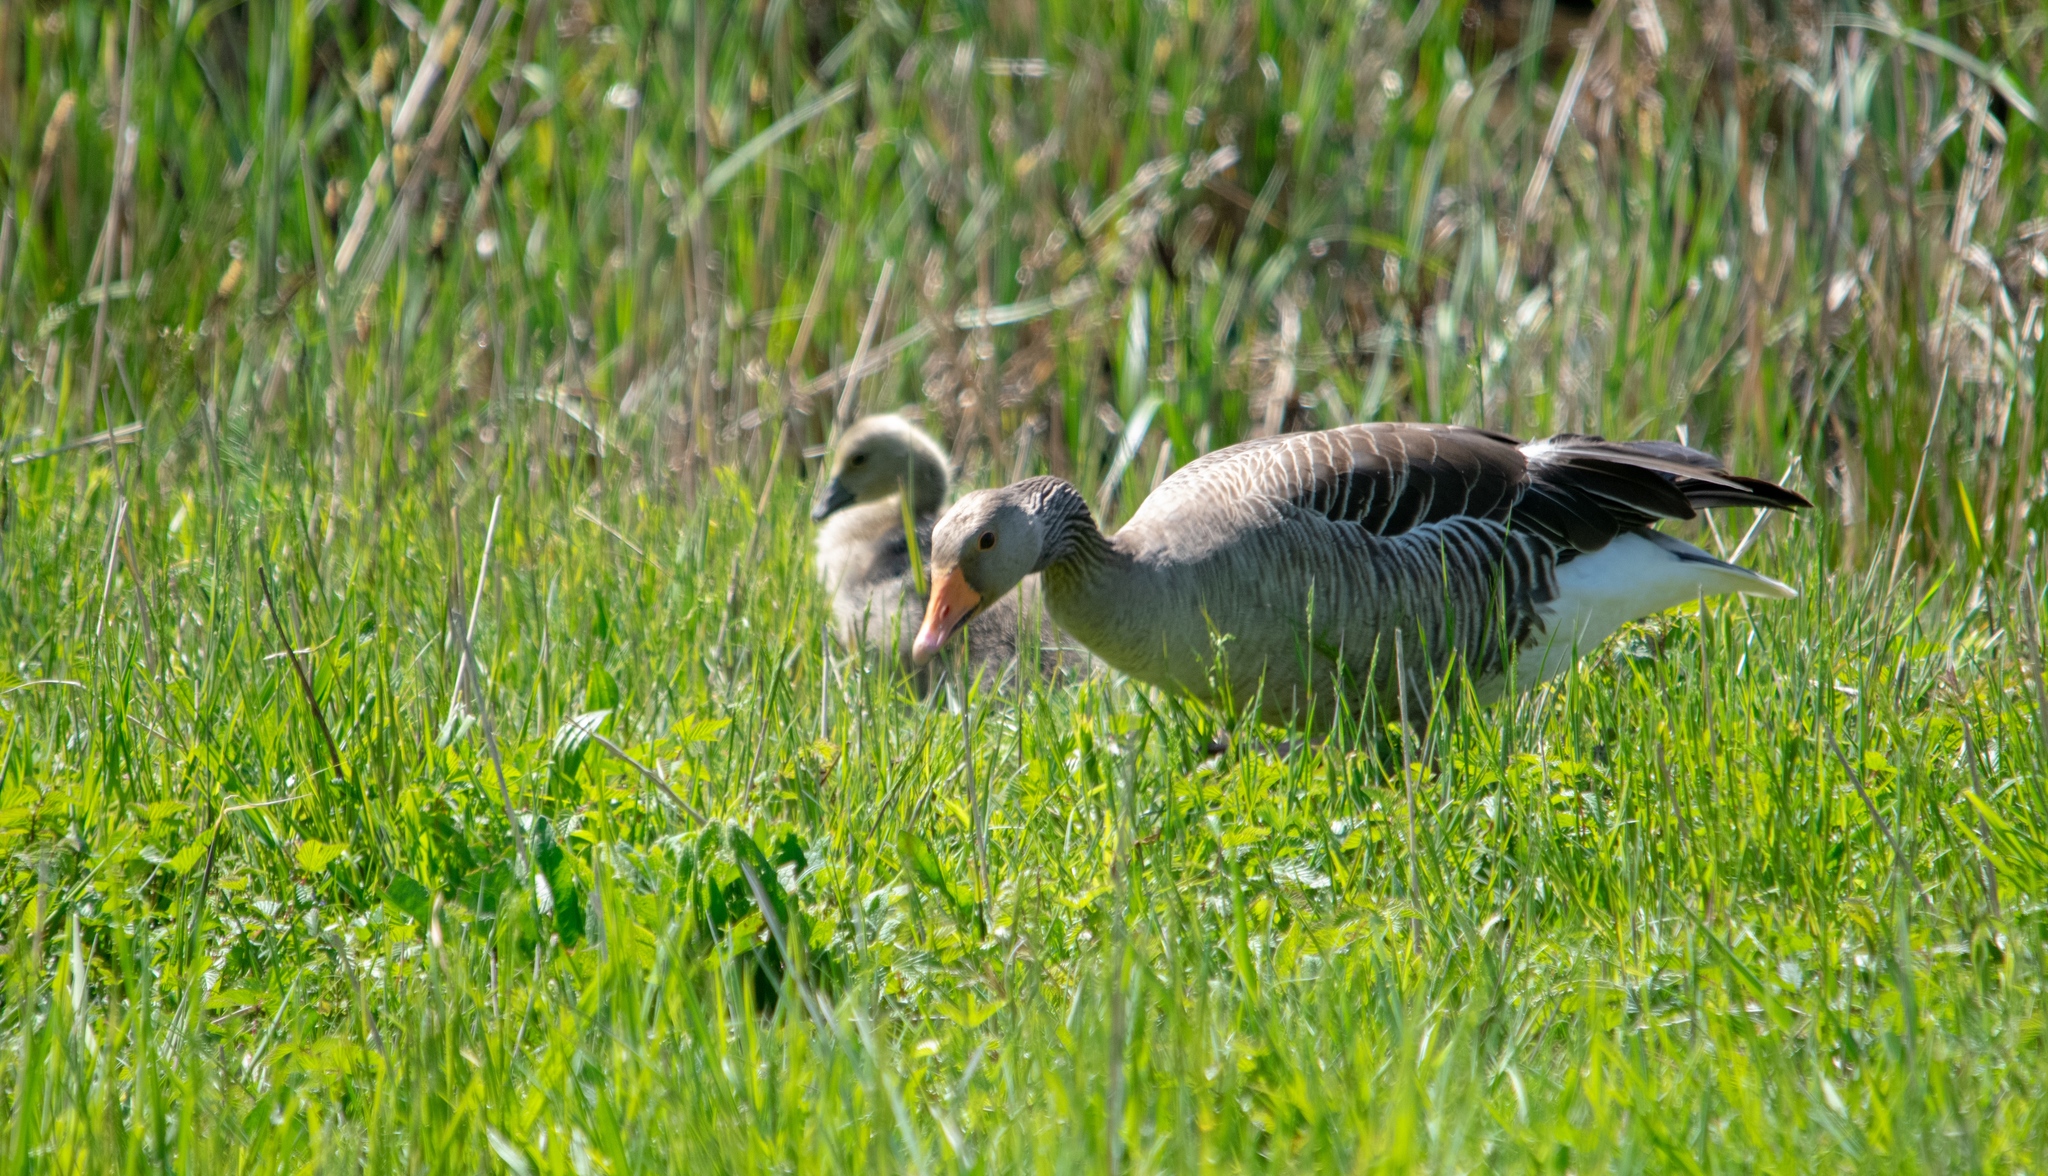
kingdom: Animalia
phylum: Chordata
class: Aves
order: Anseriformes
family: Anatidae
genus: Anser
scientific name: Anser anser
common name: Greylag goose
